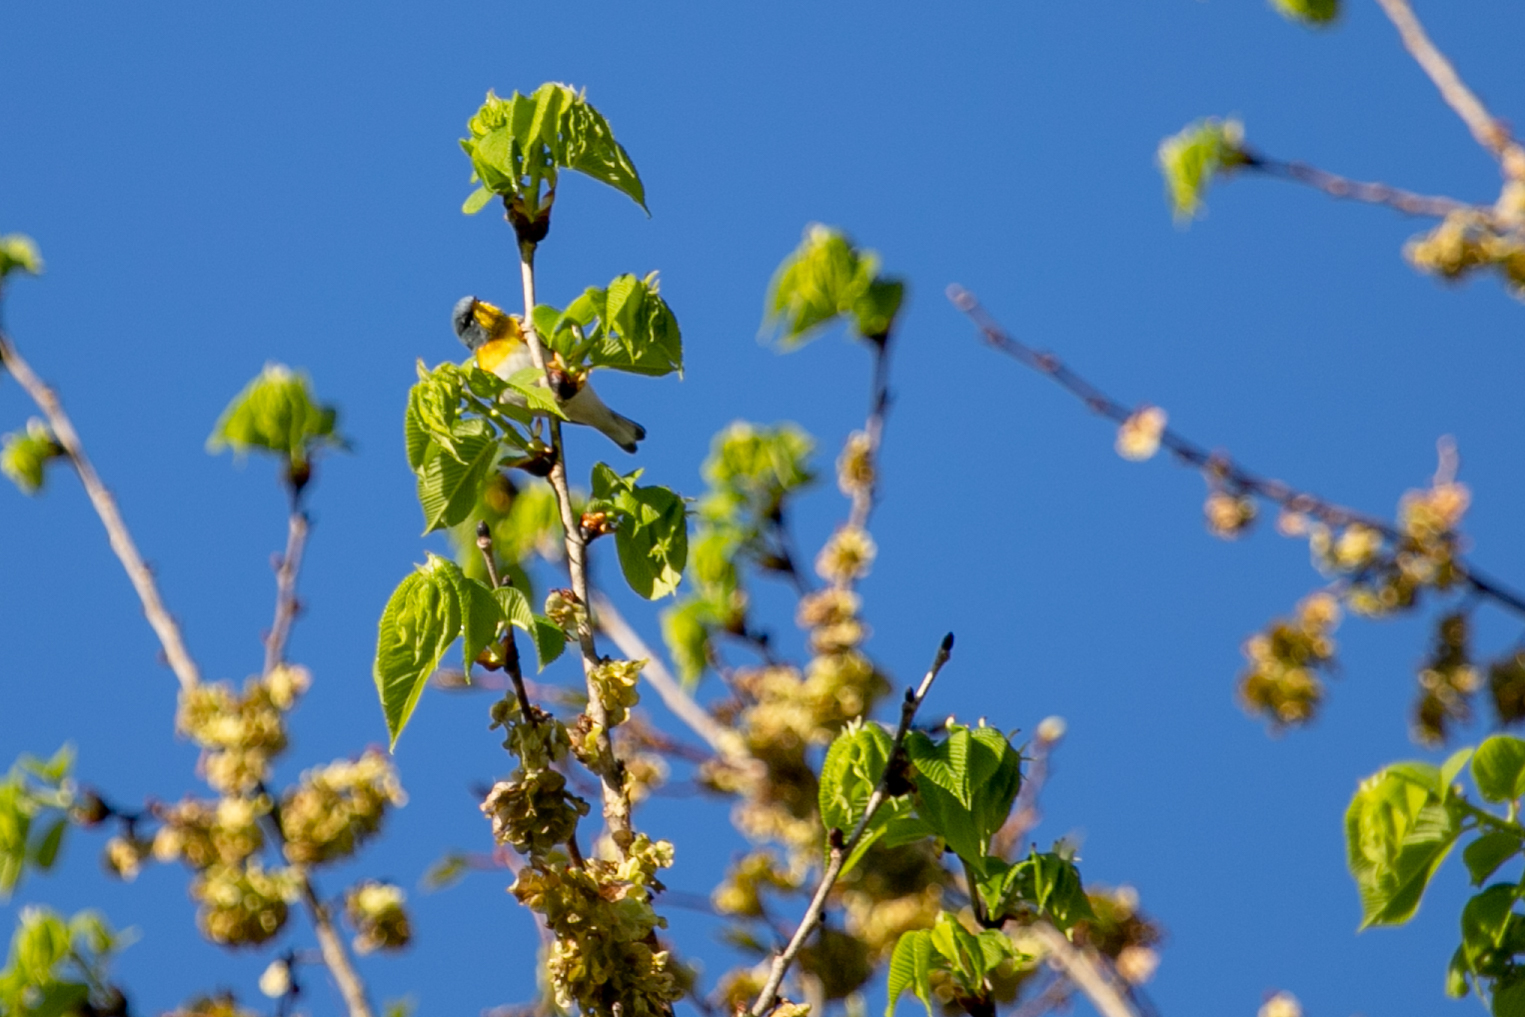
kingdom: Animalia
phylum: Chordata
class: Aves
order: Passeriformes
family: Parulidae
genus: Setophaga
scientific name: Setophaga americana
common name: Northern parula
